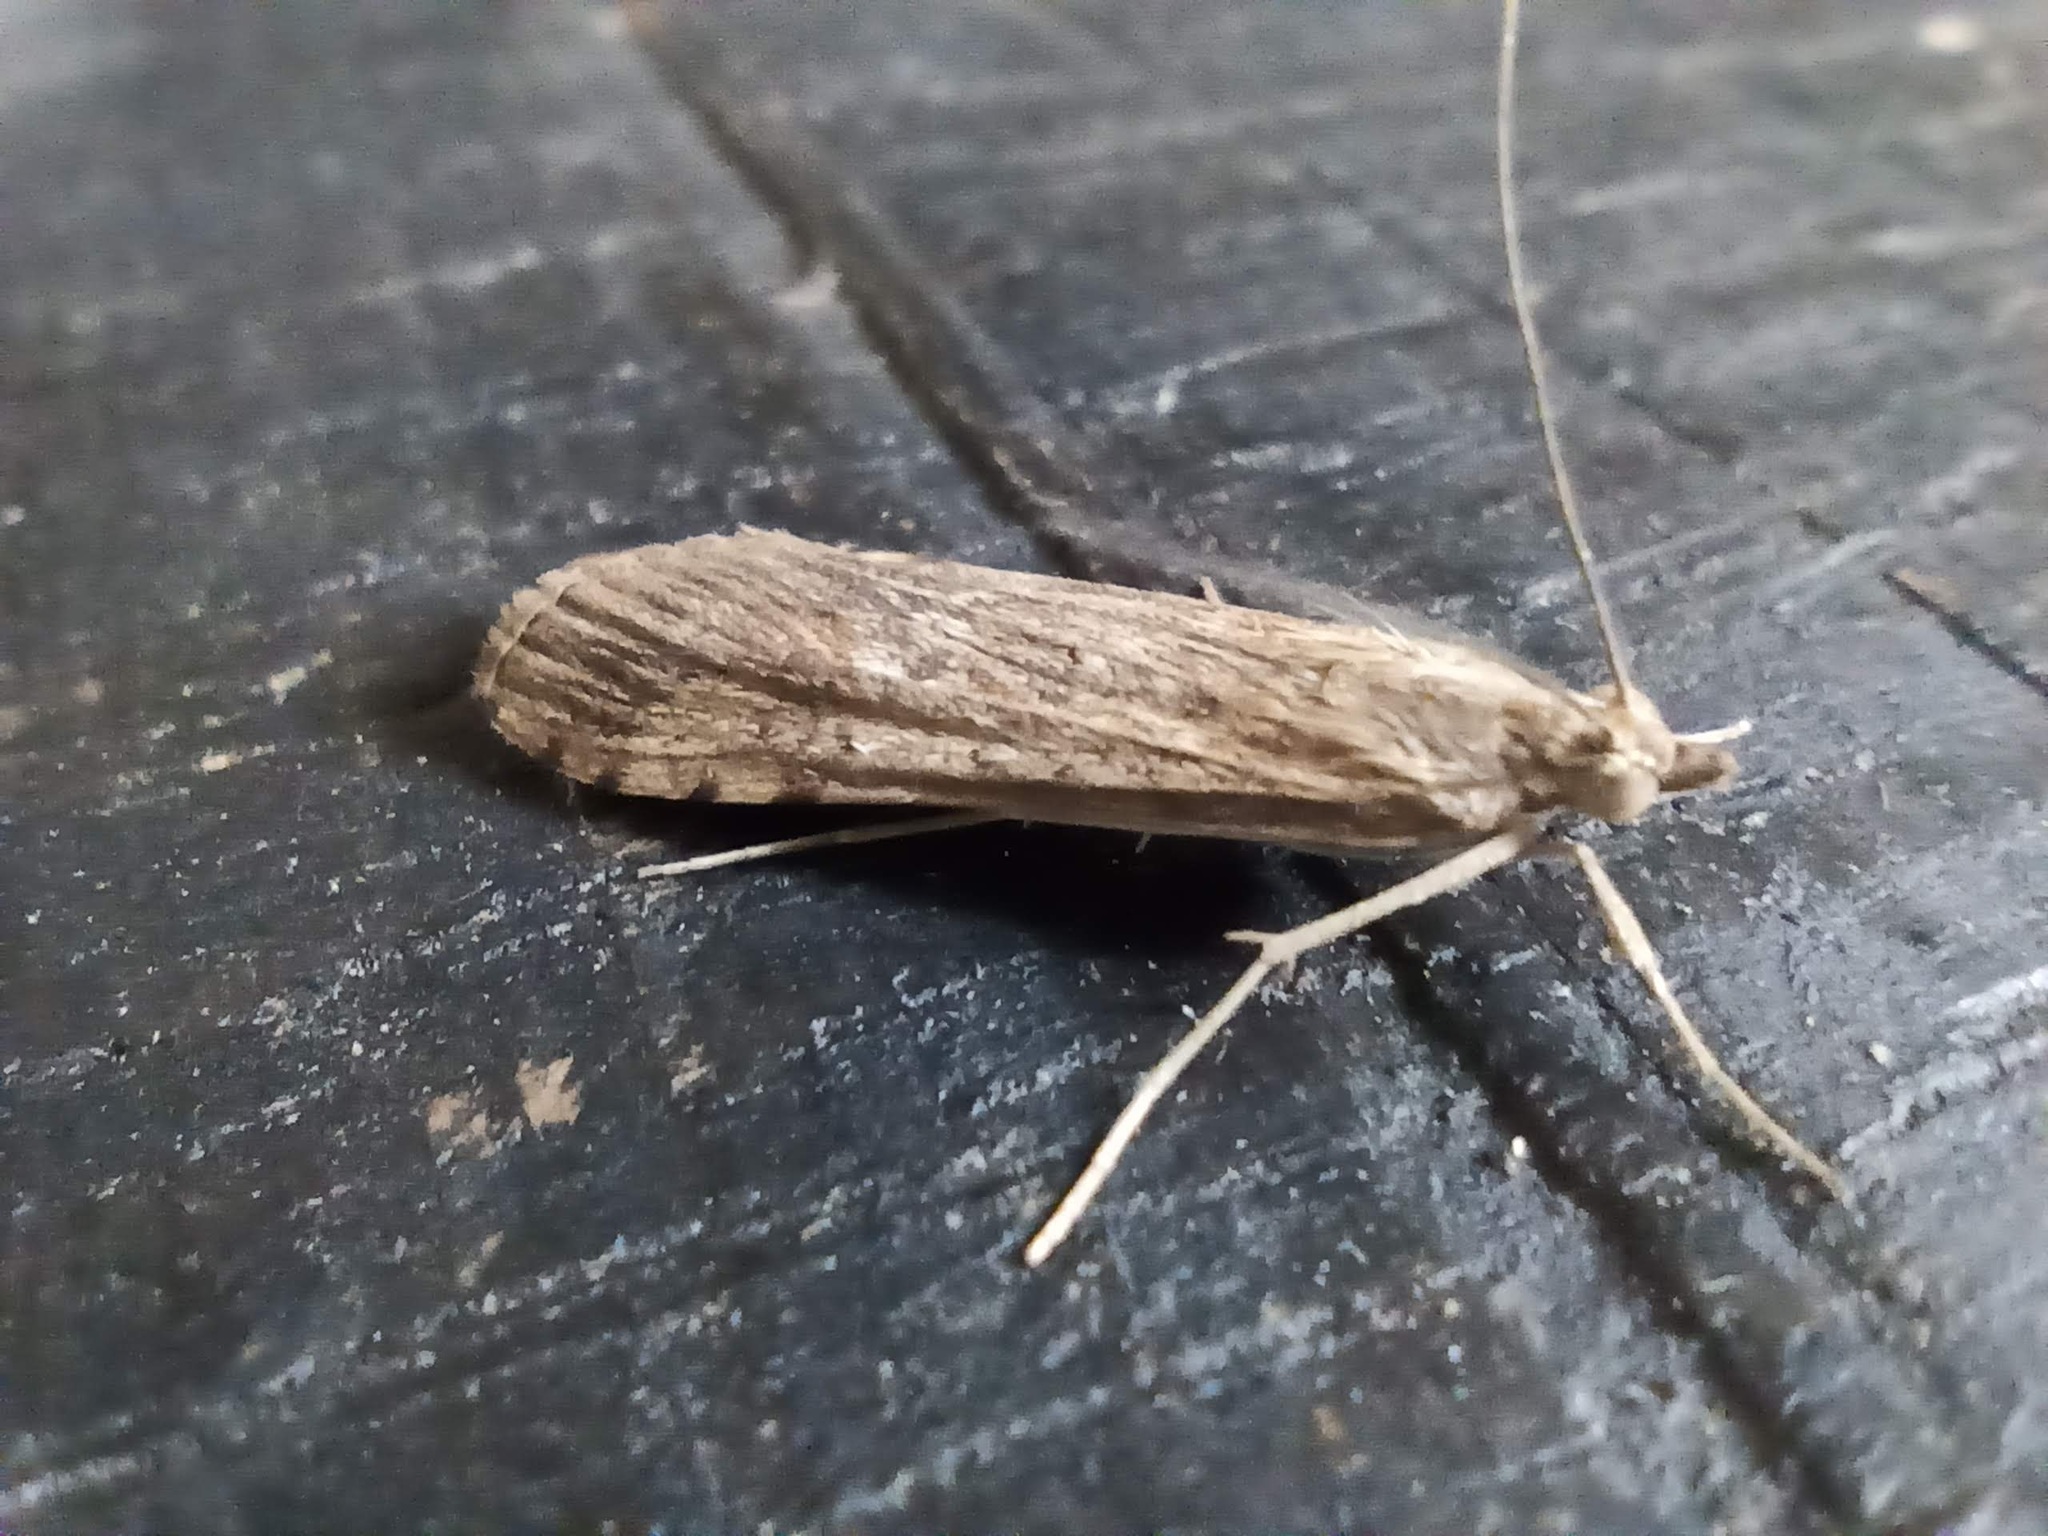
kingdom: Animalia
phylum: Arthropoda
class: Insecta
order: Lepidoptera
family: Crambidae
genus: Nomophila
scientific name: Nomophila noctuella
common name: Rush veneer
